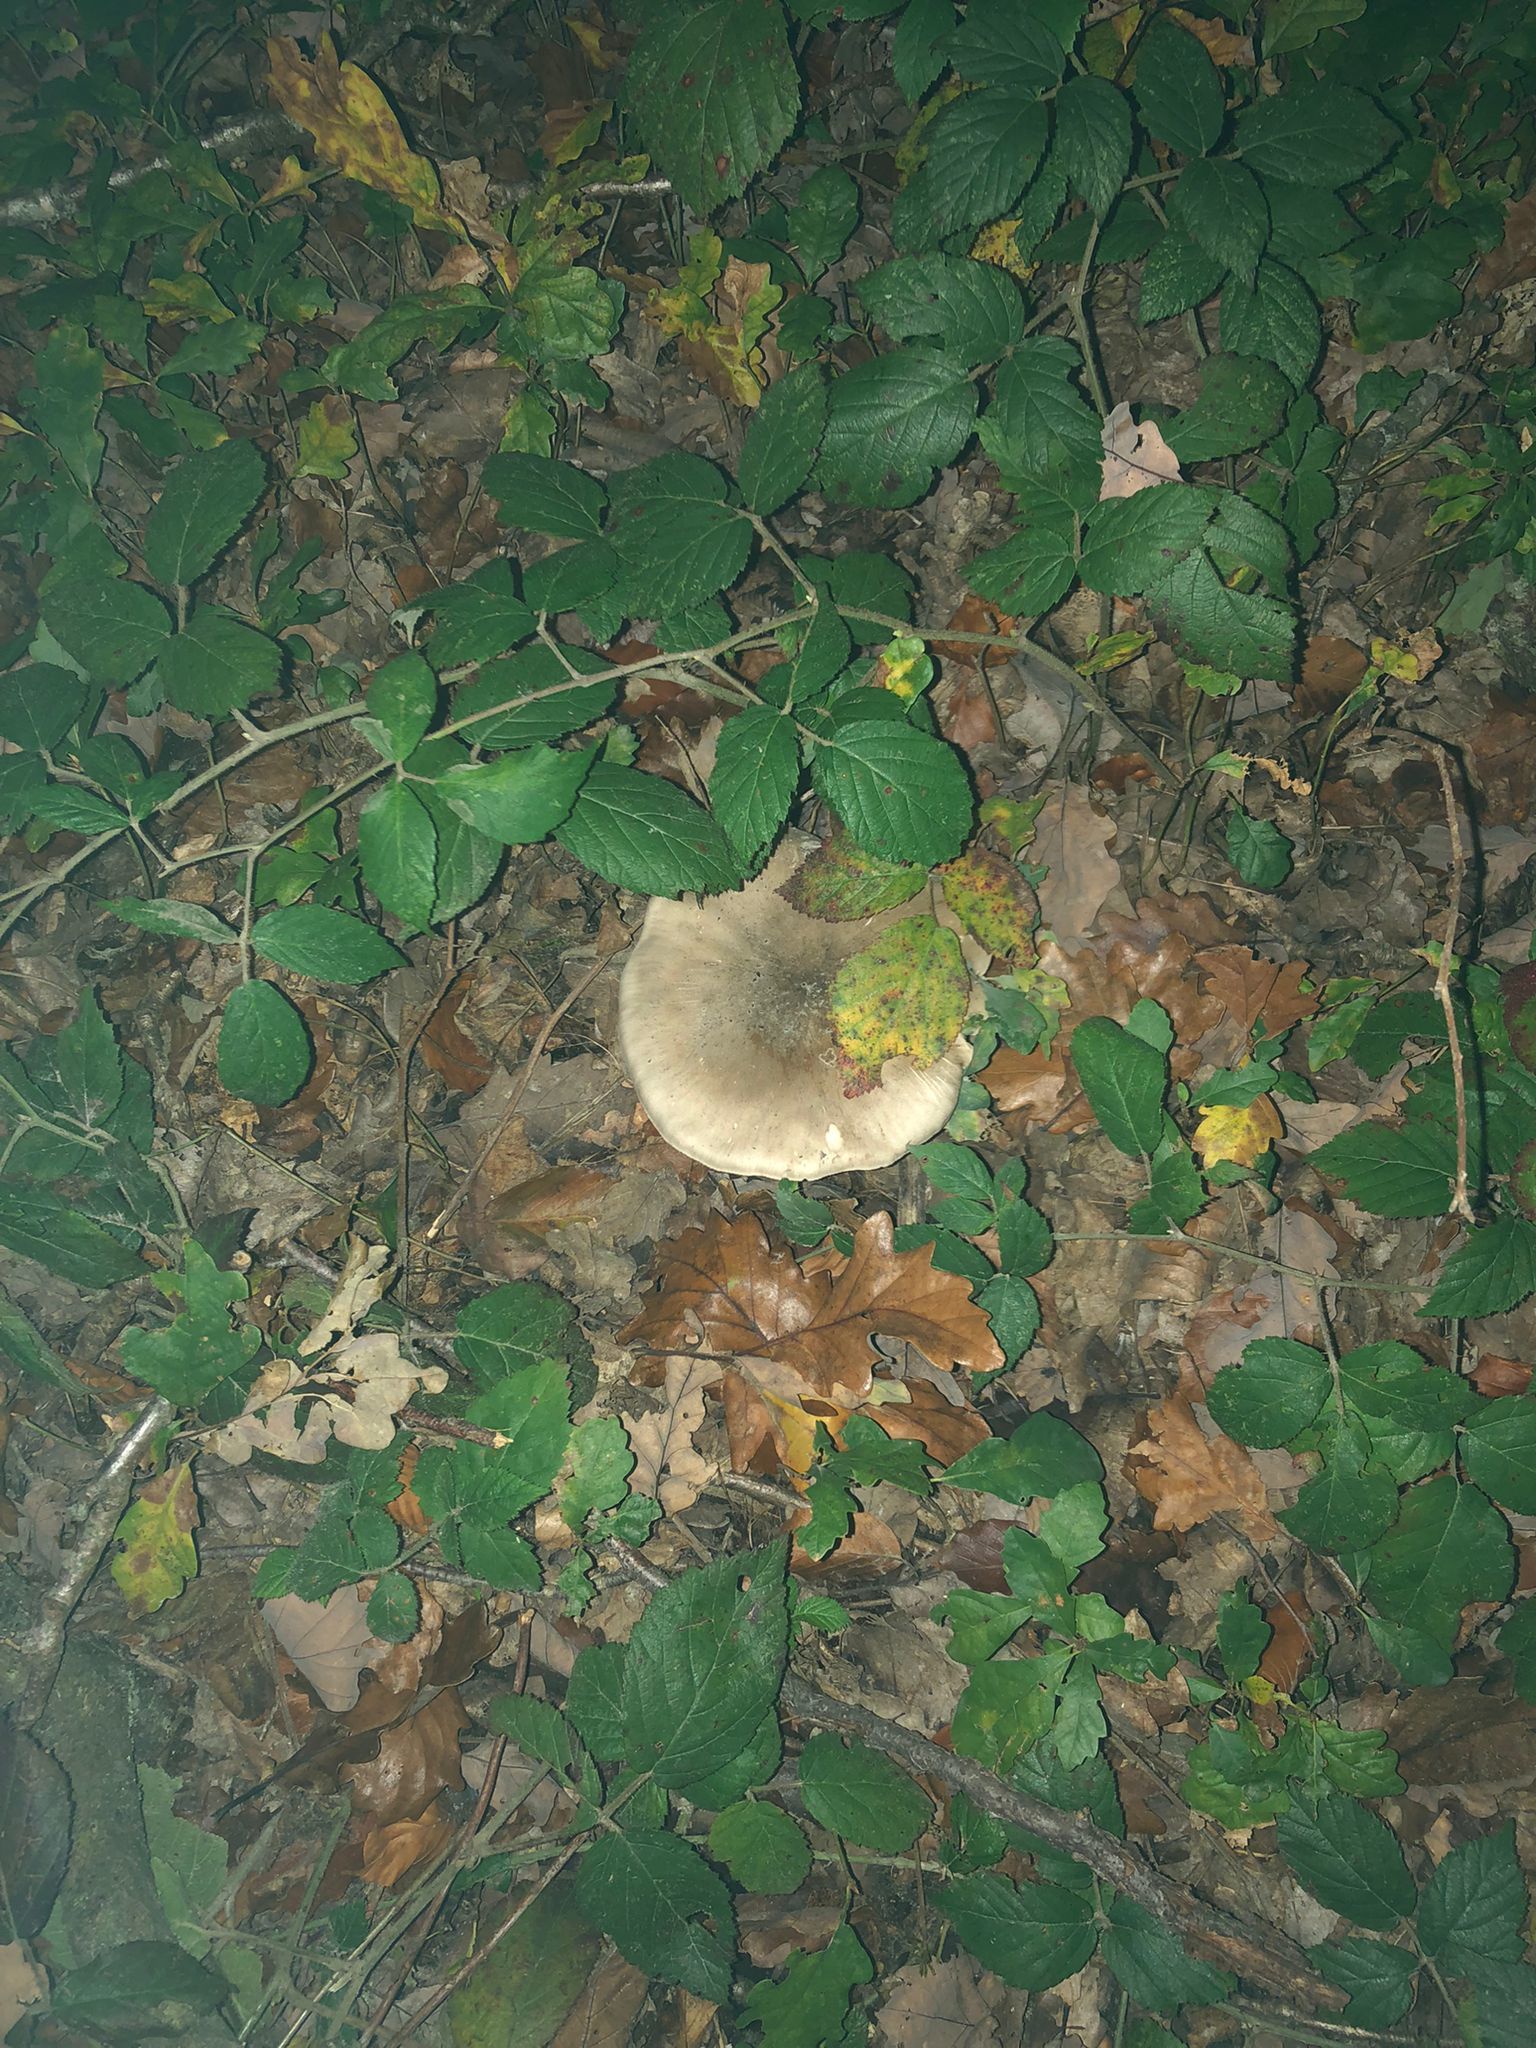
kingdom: Fungi
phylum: Basidiomycota
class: Agaricomycetes
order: Agaricales
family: Tricholomataceae
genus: Clitocybe
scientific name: Clitocybe nebularis
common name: Clouded agaric
